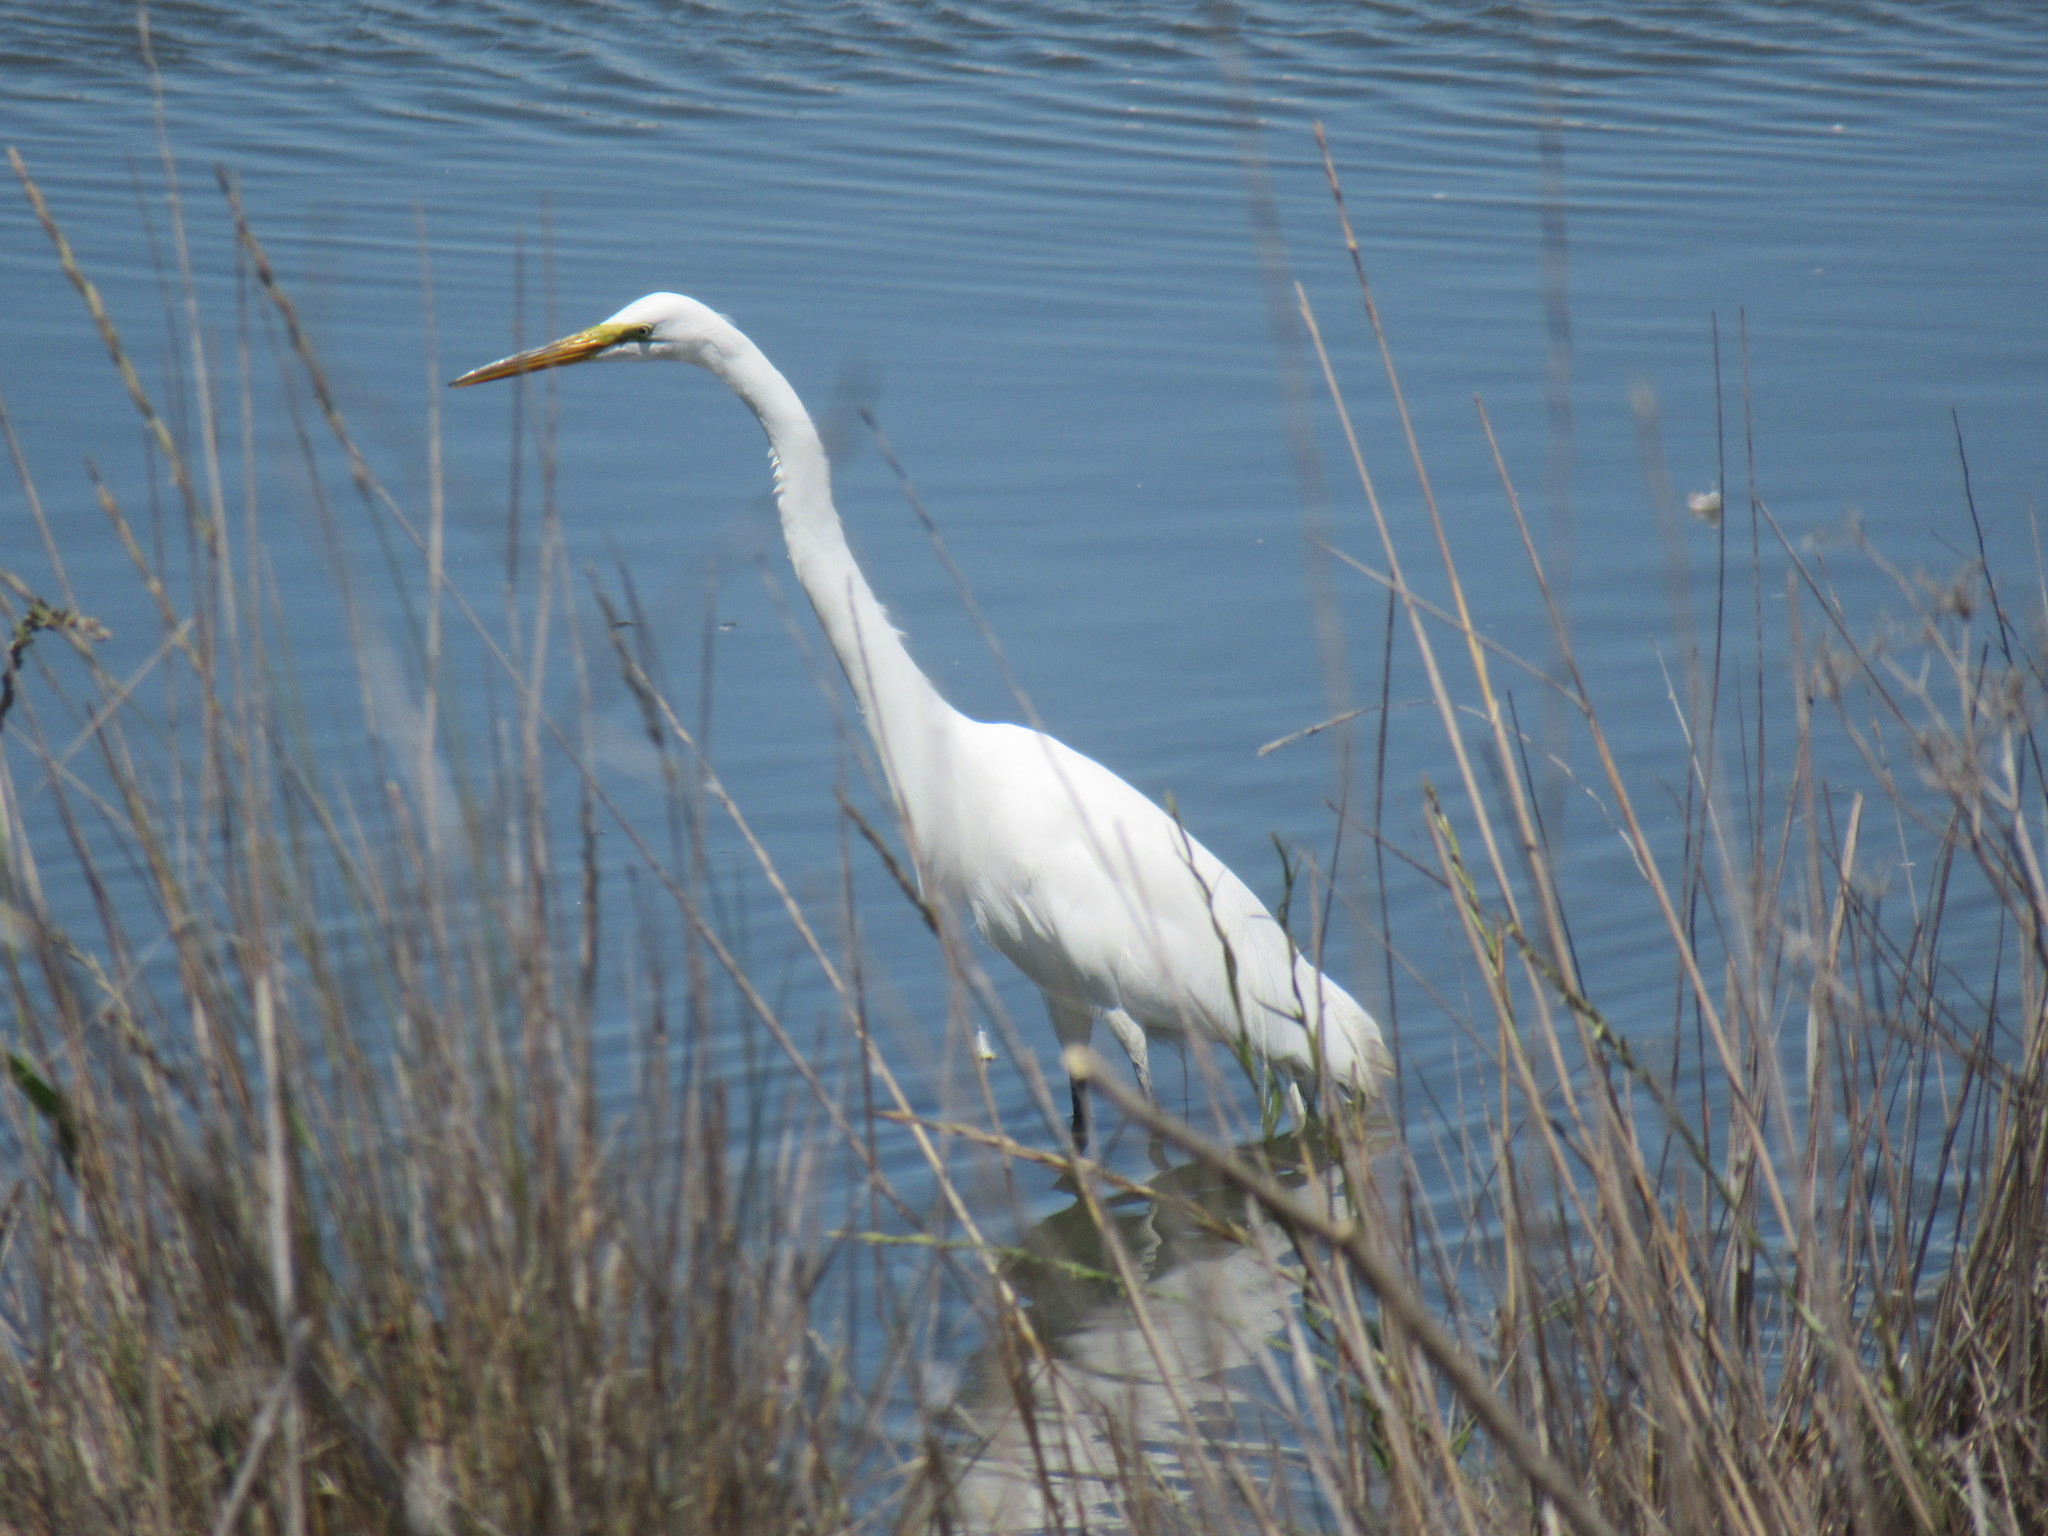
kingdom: Animalia
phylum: Chordata
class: Aves
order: Pelecaniformes
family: Ardeidae
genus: Ardea
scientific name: Ardea alba
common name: Great egret
